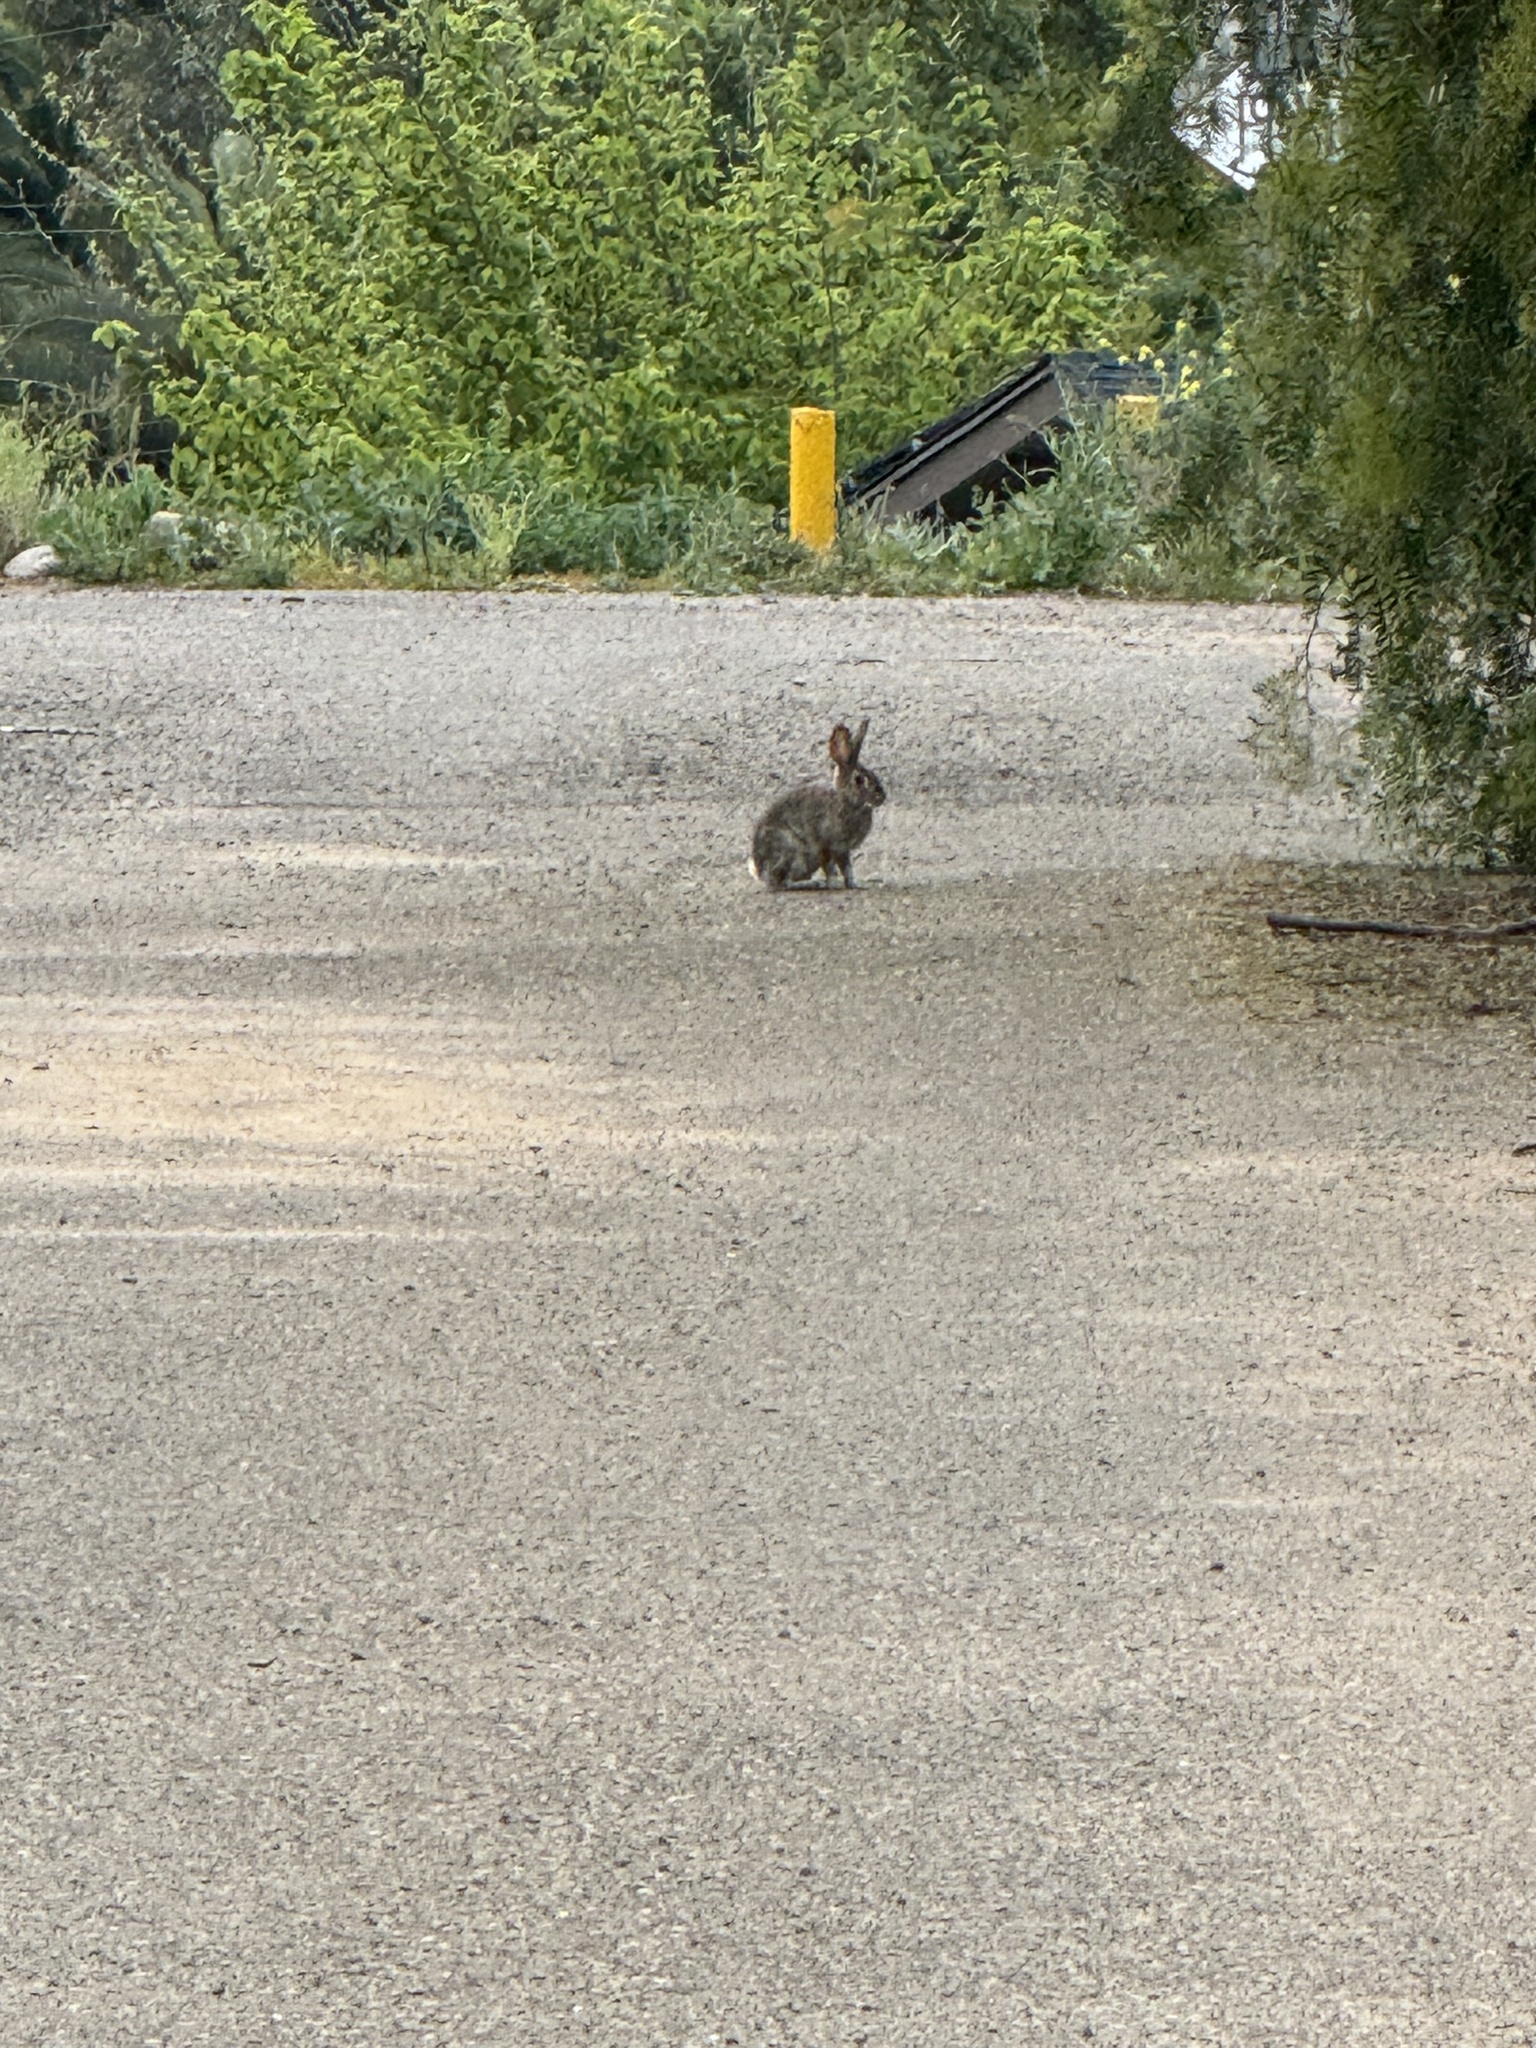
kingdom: Animalia
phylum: Chordata
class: Mammalia
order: Lagomorpha
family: Leporidae
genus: Sylvilagus
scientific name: Sylvilagus audubonii
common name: Desert cottontail
